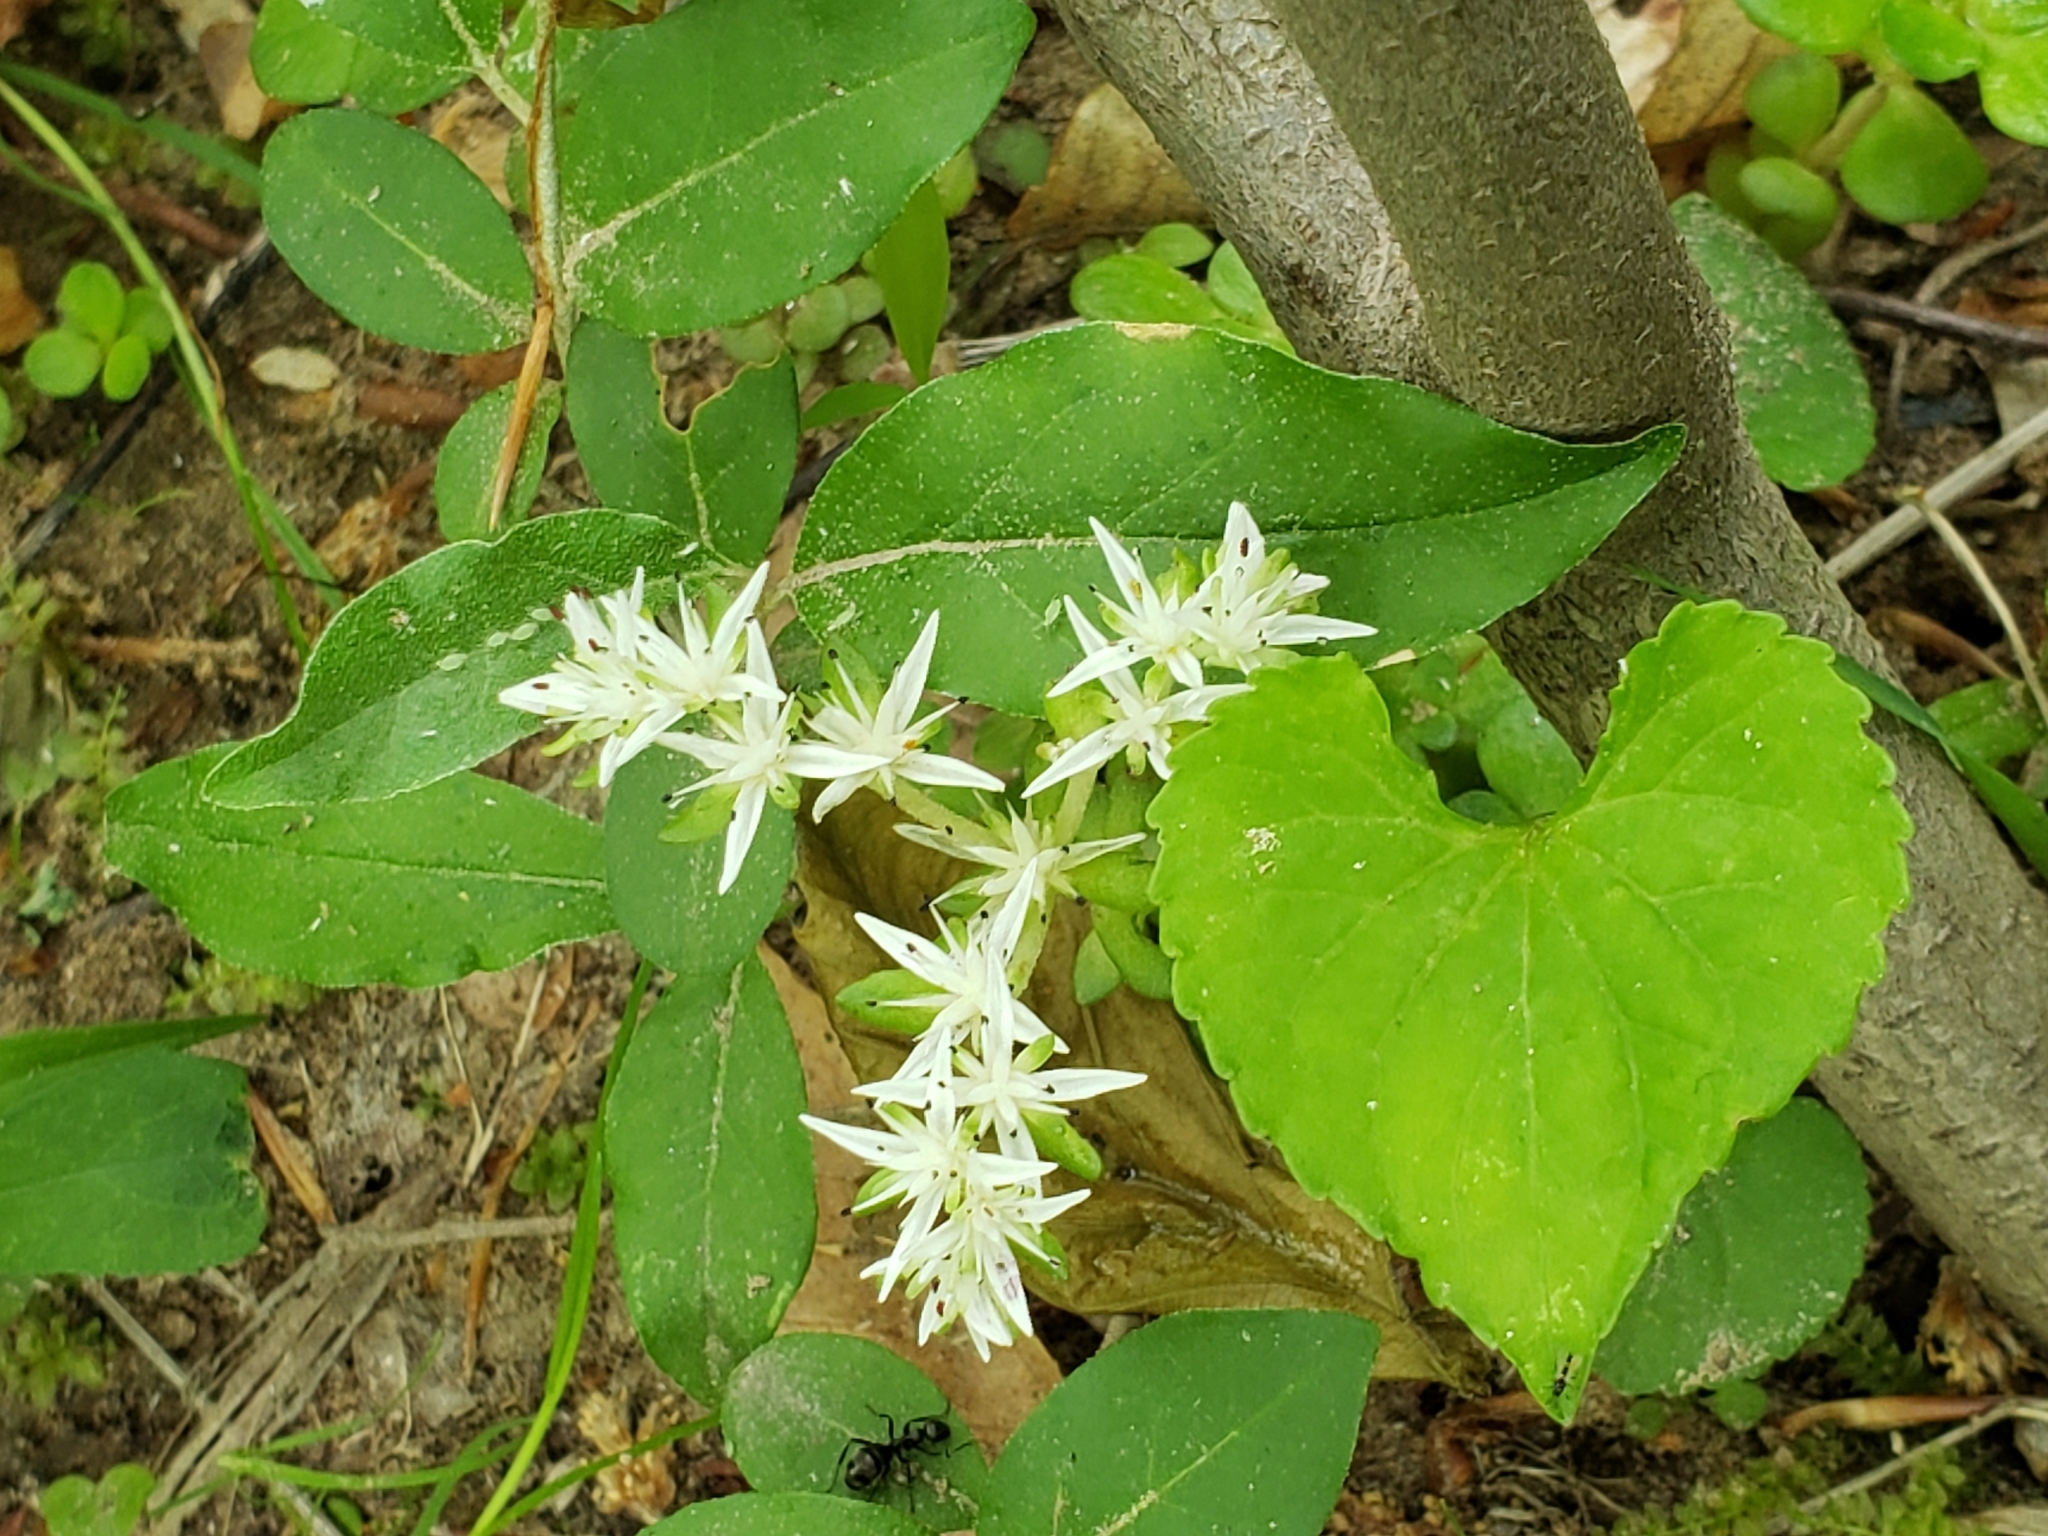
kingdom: Plantae
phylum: Tracheophyta
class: Magnoliopsida
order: Saxifragales
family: Crassulaceae
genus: Sedum
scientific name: Sedum ternatum
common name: Wild stonecrop
